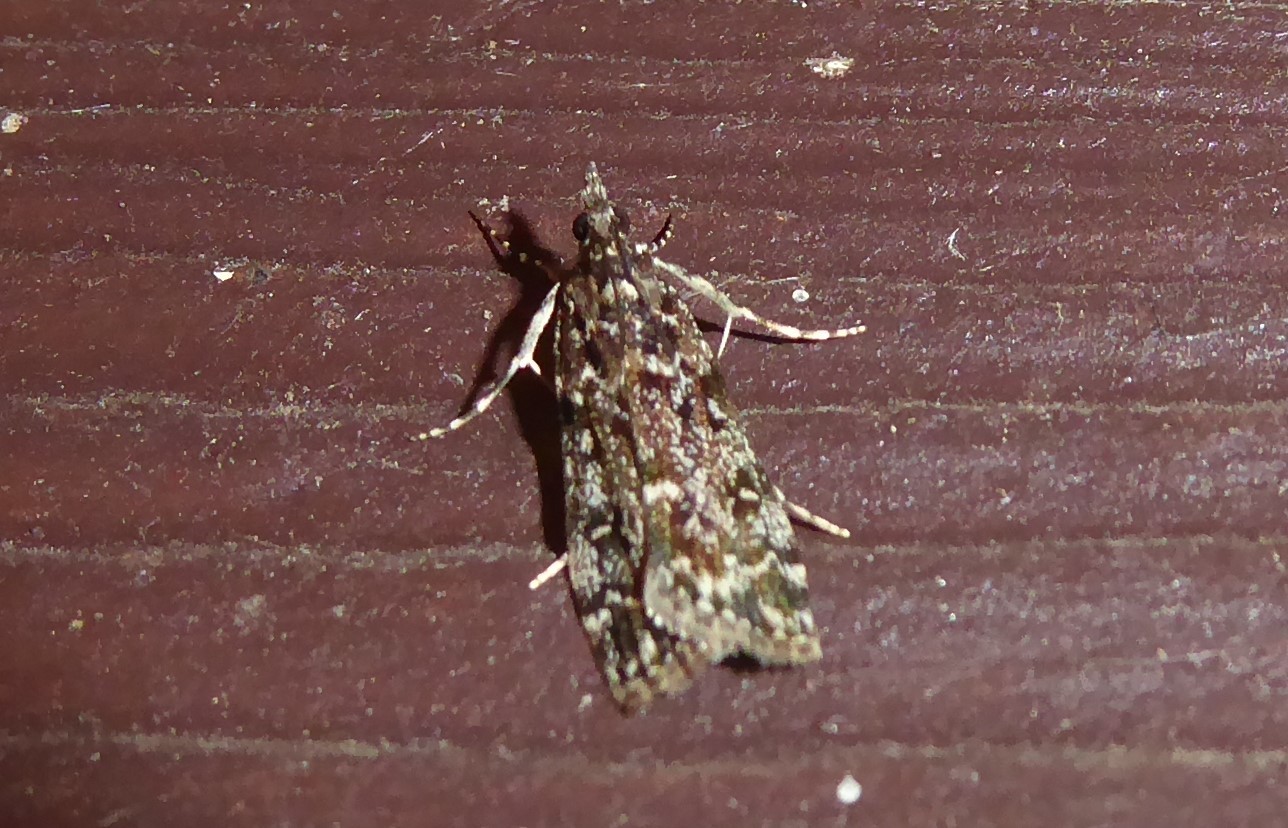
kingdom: Animalia
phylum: Arthropoda
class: Insecta
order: Lepidoptera
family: Crambidae
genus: Eudonia
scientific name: Eudonia philerga
